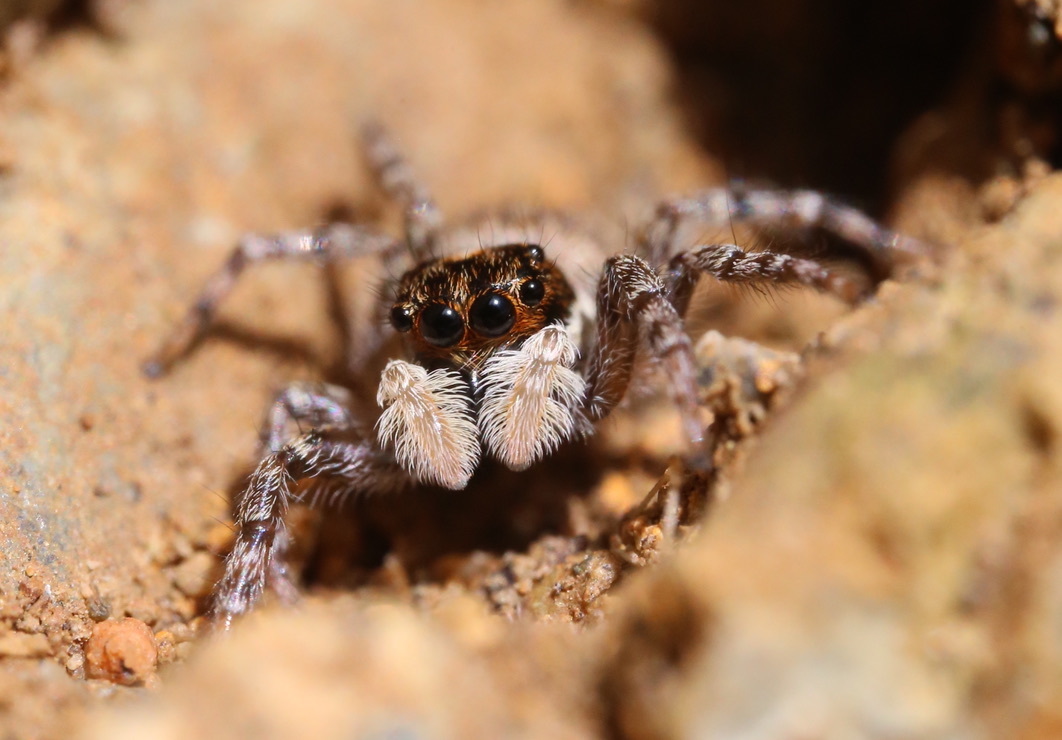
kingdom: Animalia
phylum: Arthropoda
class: Arachnida
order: Araneae
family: Salticidae
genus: Menemerus
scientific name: Menemerus semilimbatus
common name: Jumping spider
